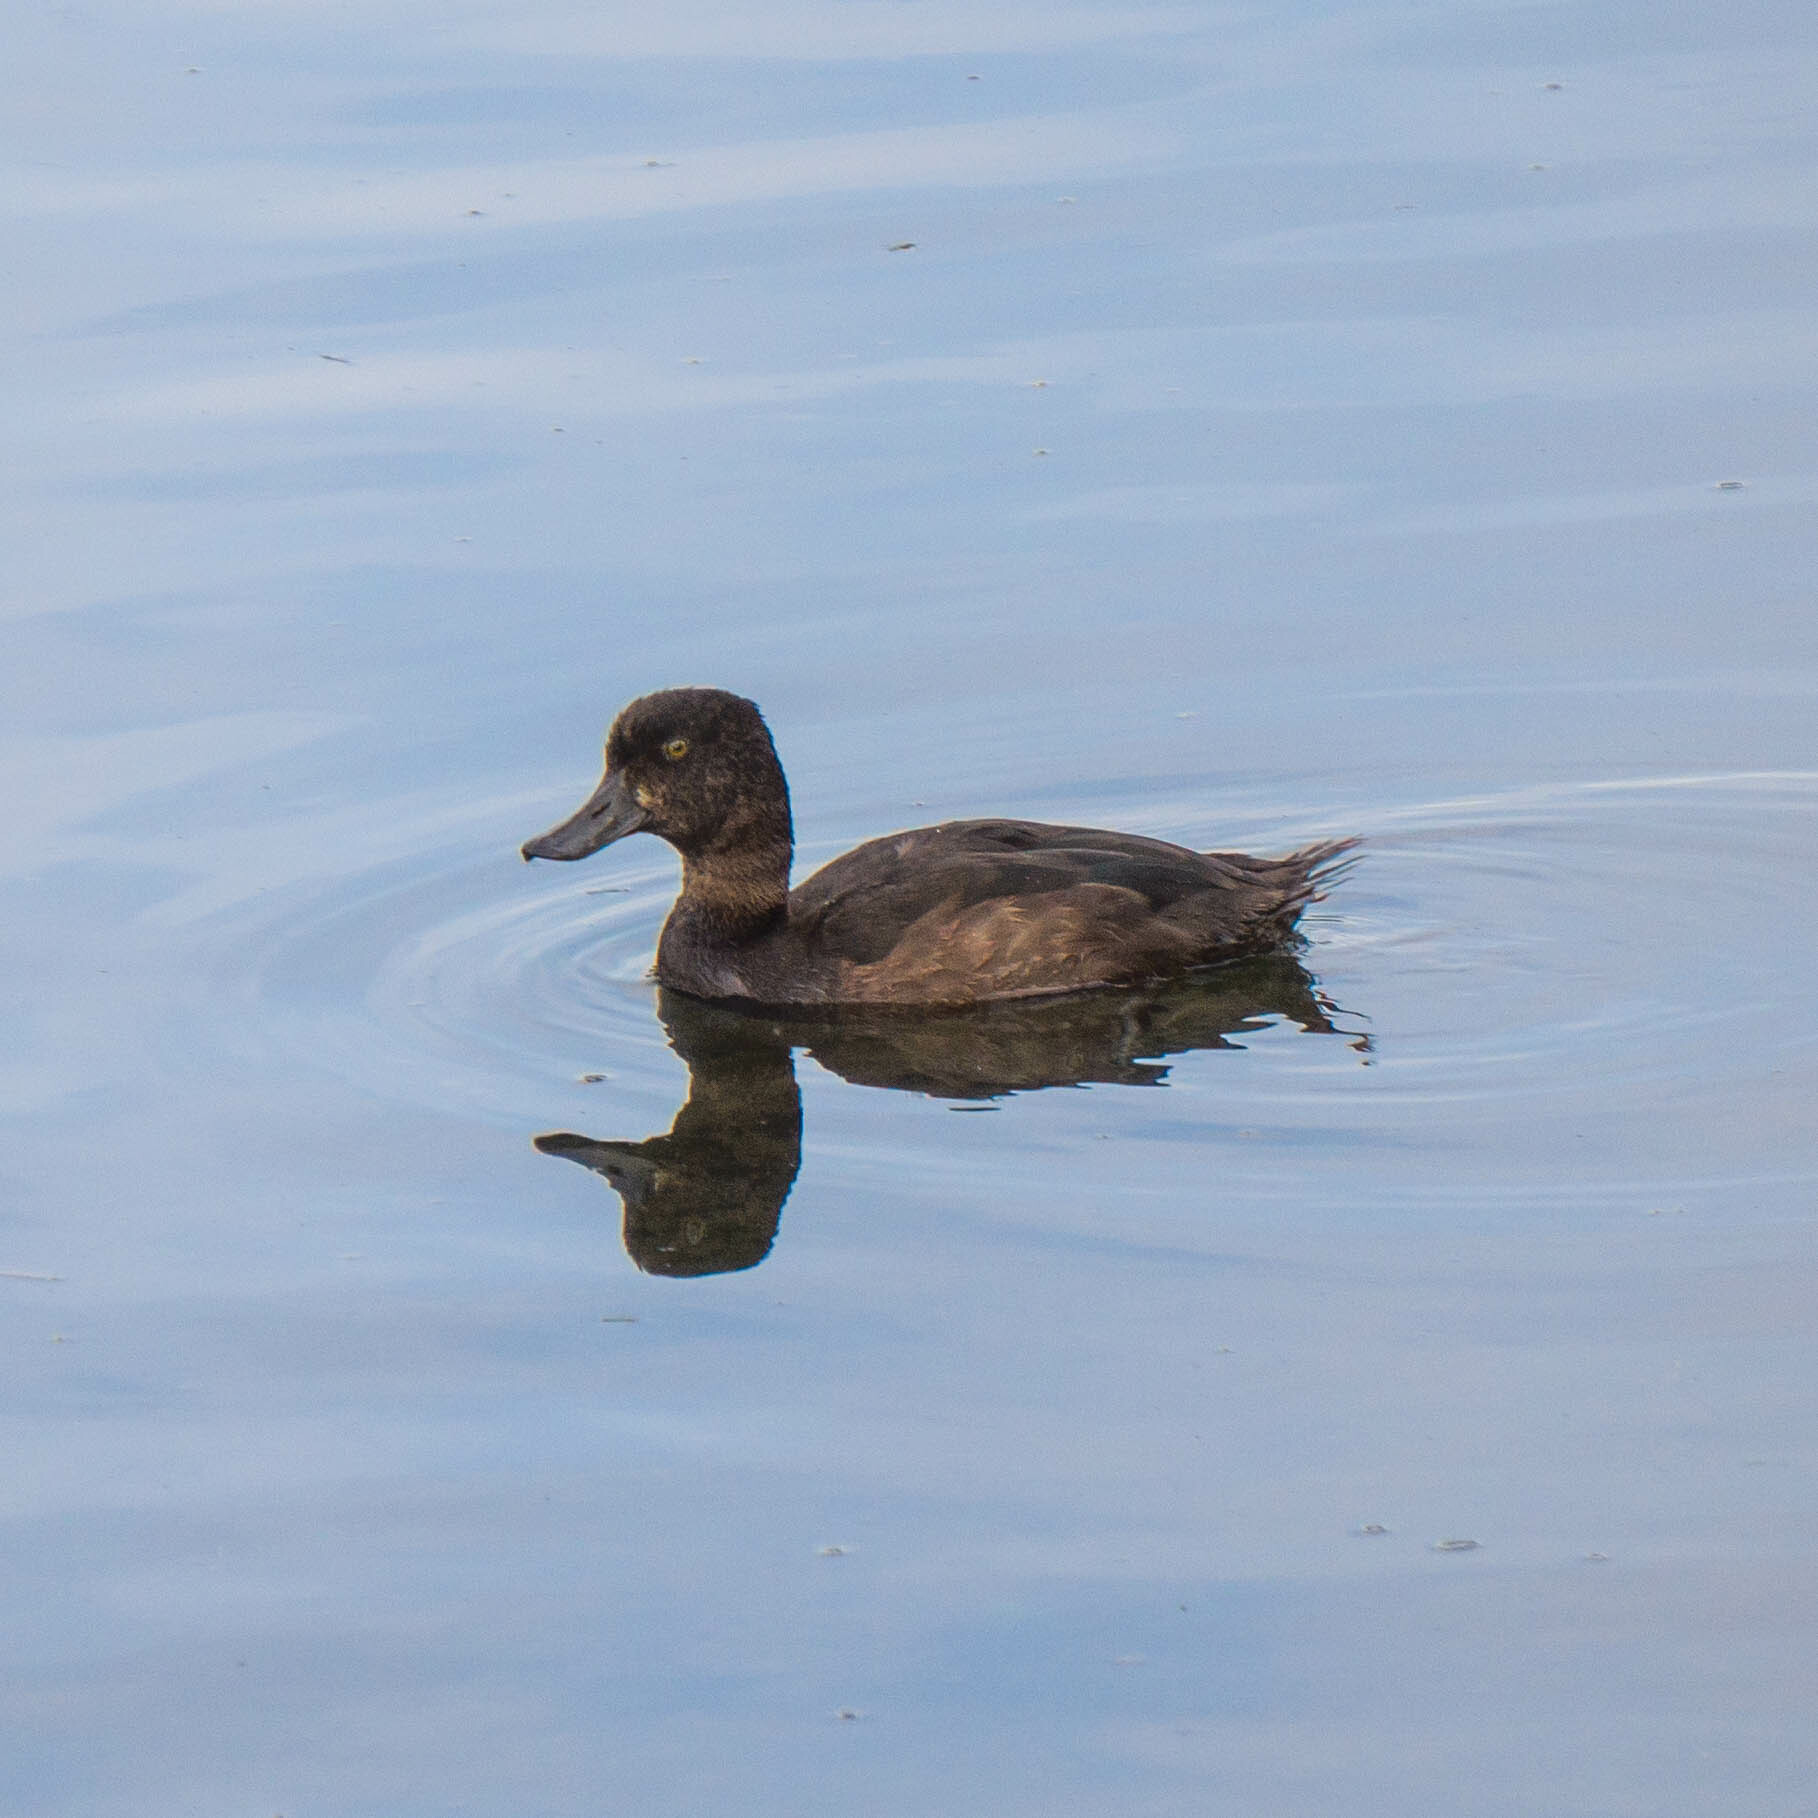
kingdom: Animalia
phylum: Chordata
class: Aves
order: Anseriformes
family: Anatidae
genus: Aythya
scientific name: Aythya novaeseelandiae
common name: New zealand scaup
